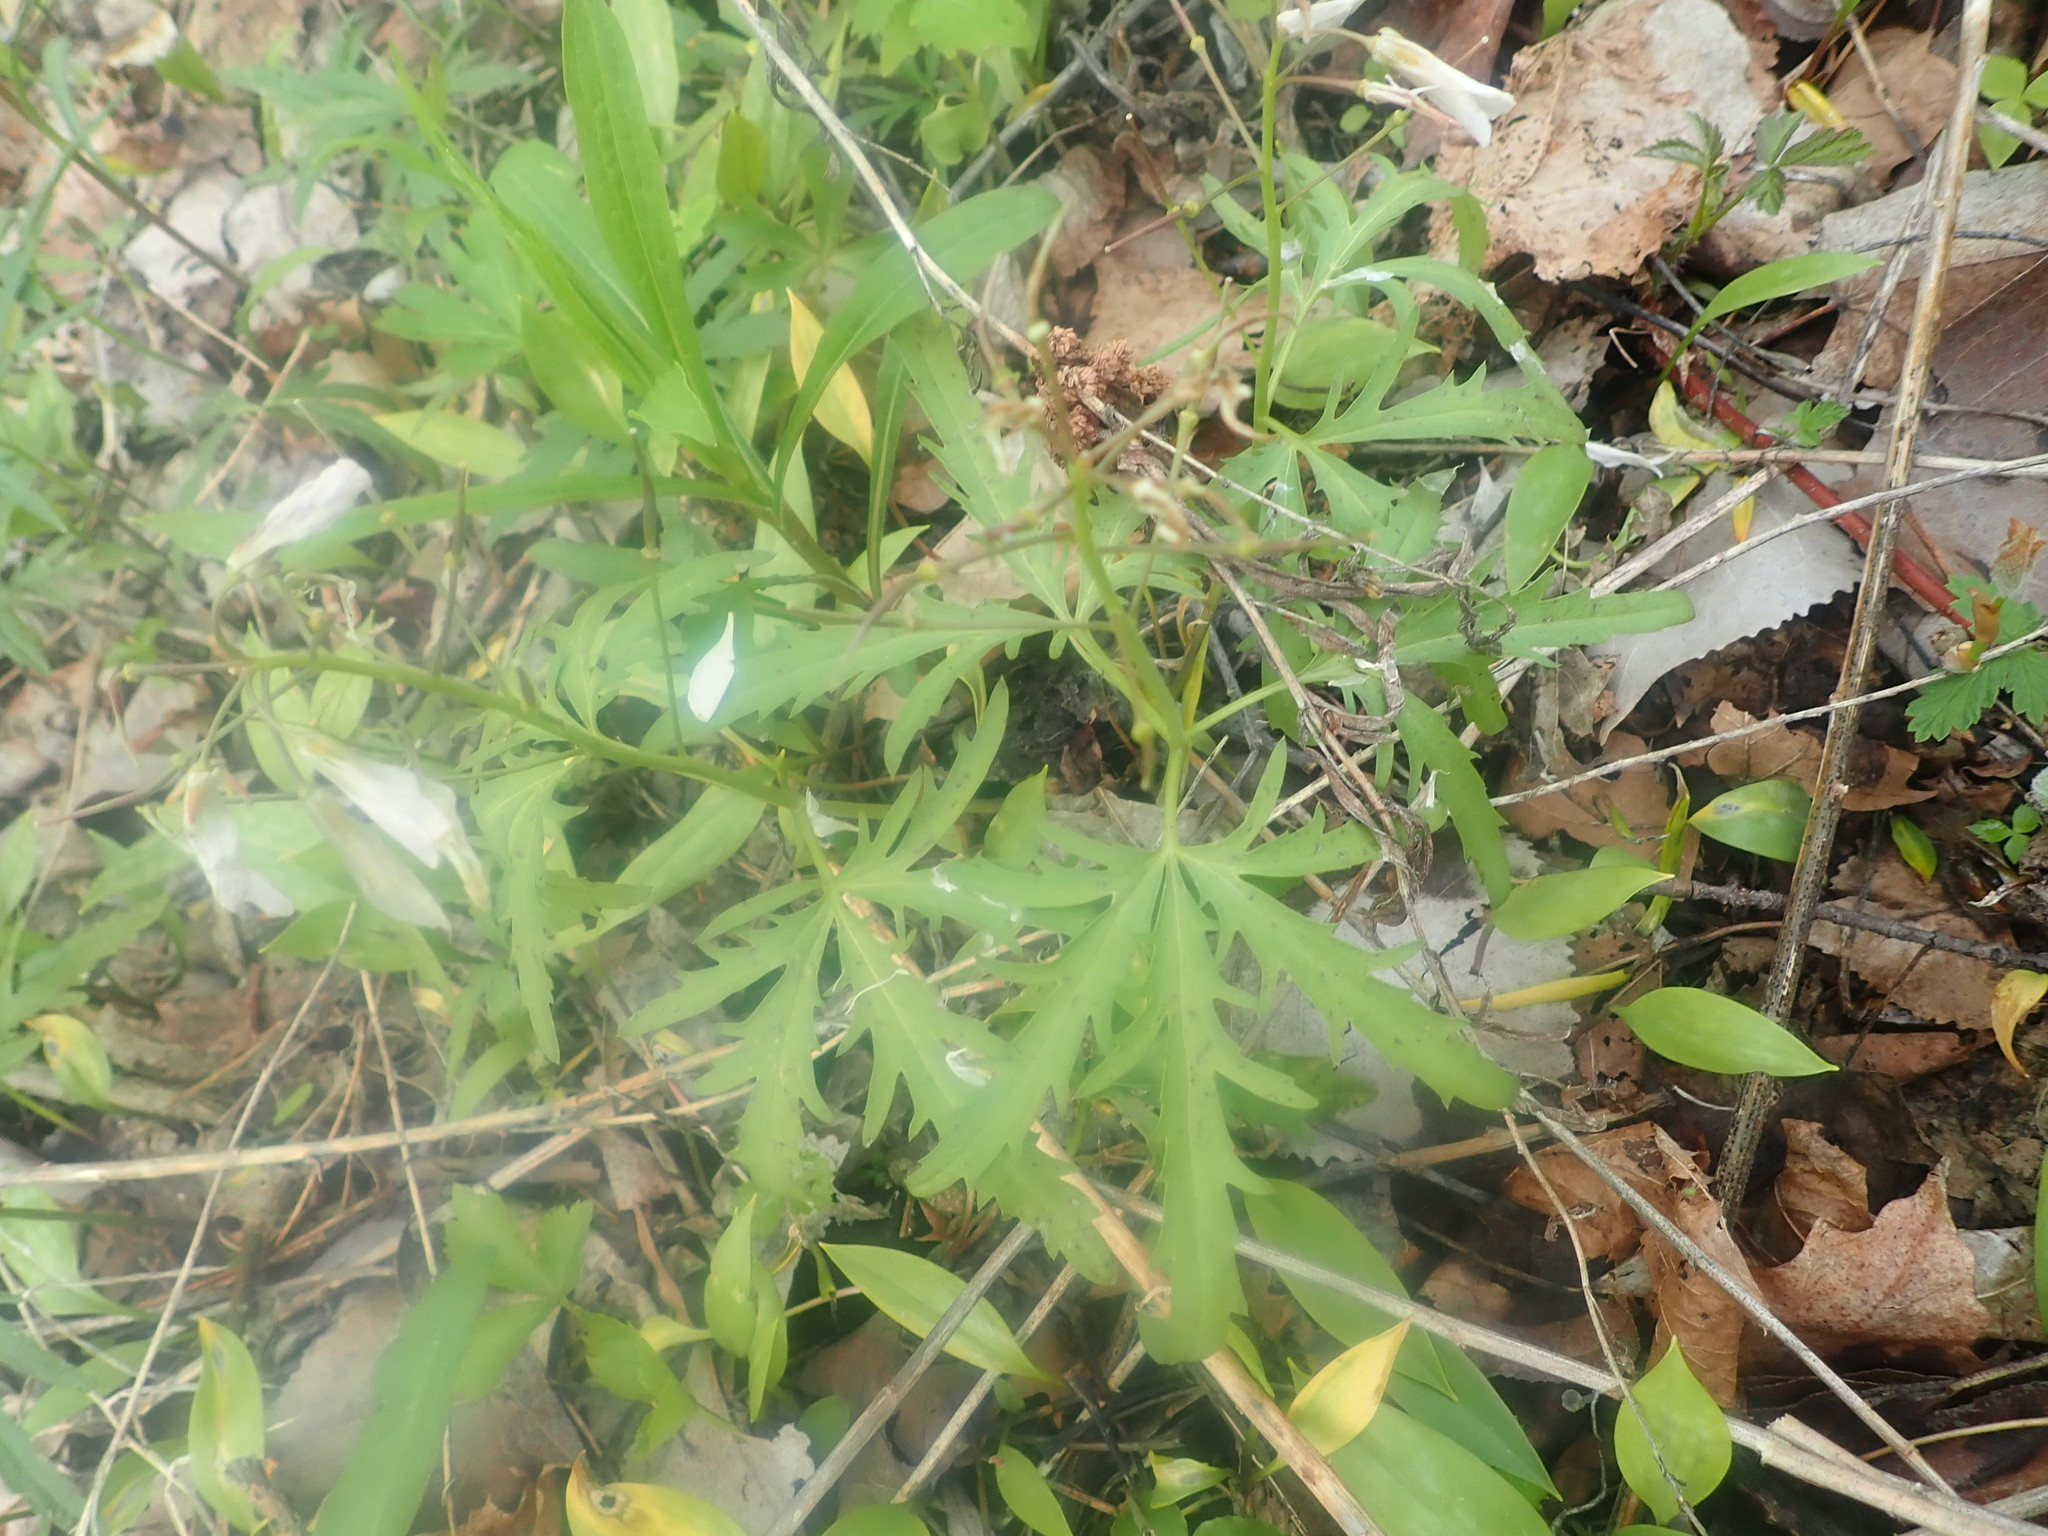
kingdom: Plantae
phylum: Tracheophyta
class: Magnoliopsida
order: Brassicales
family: Brassicaceae
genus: Cardamine
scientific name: Cardamine concatenata
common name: Cut-leaf toothcup
